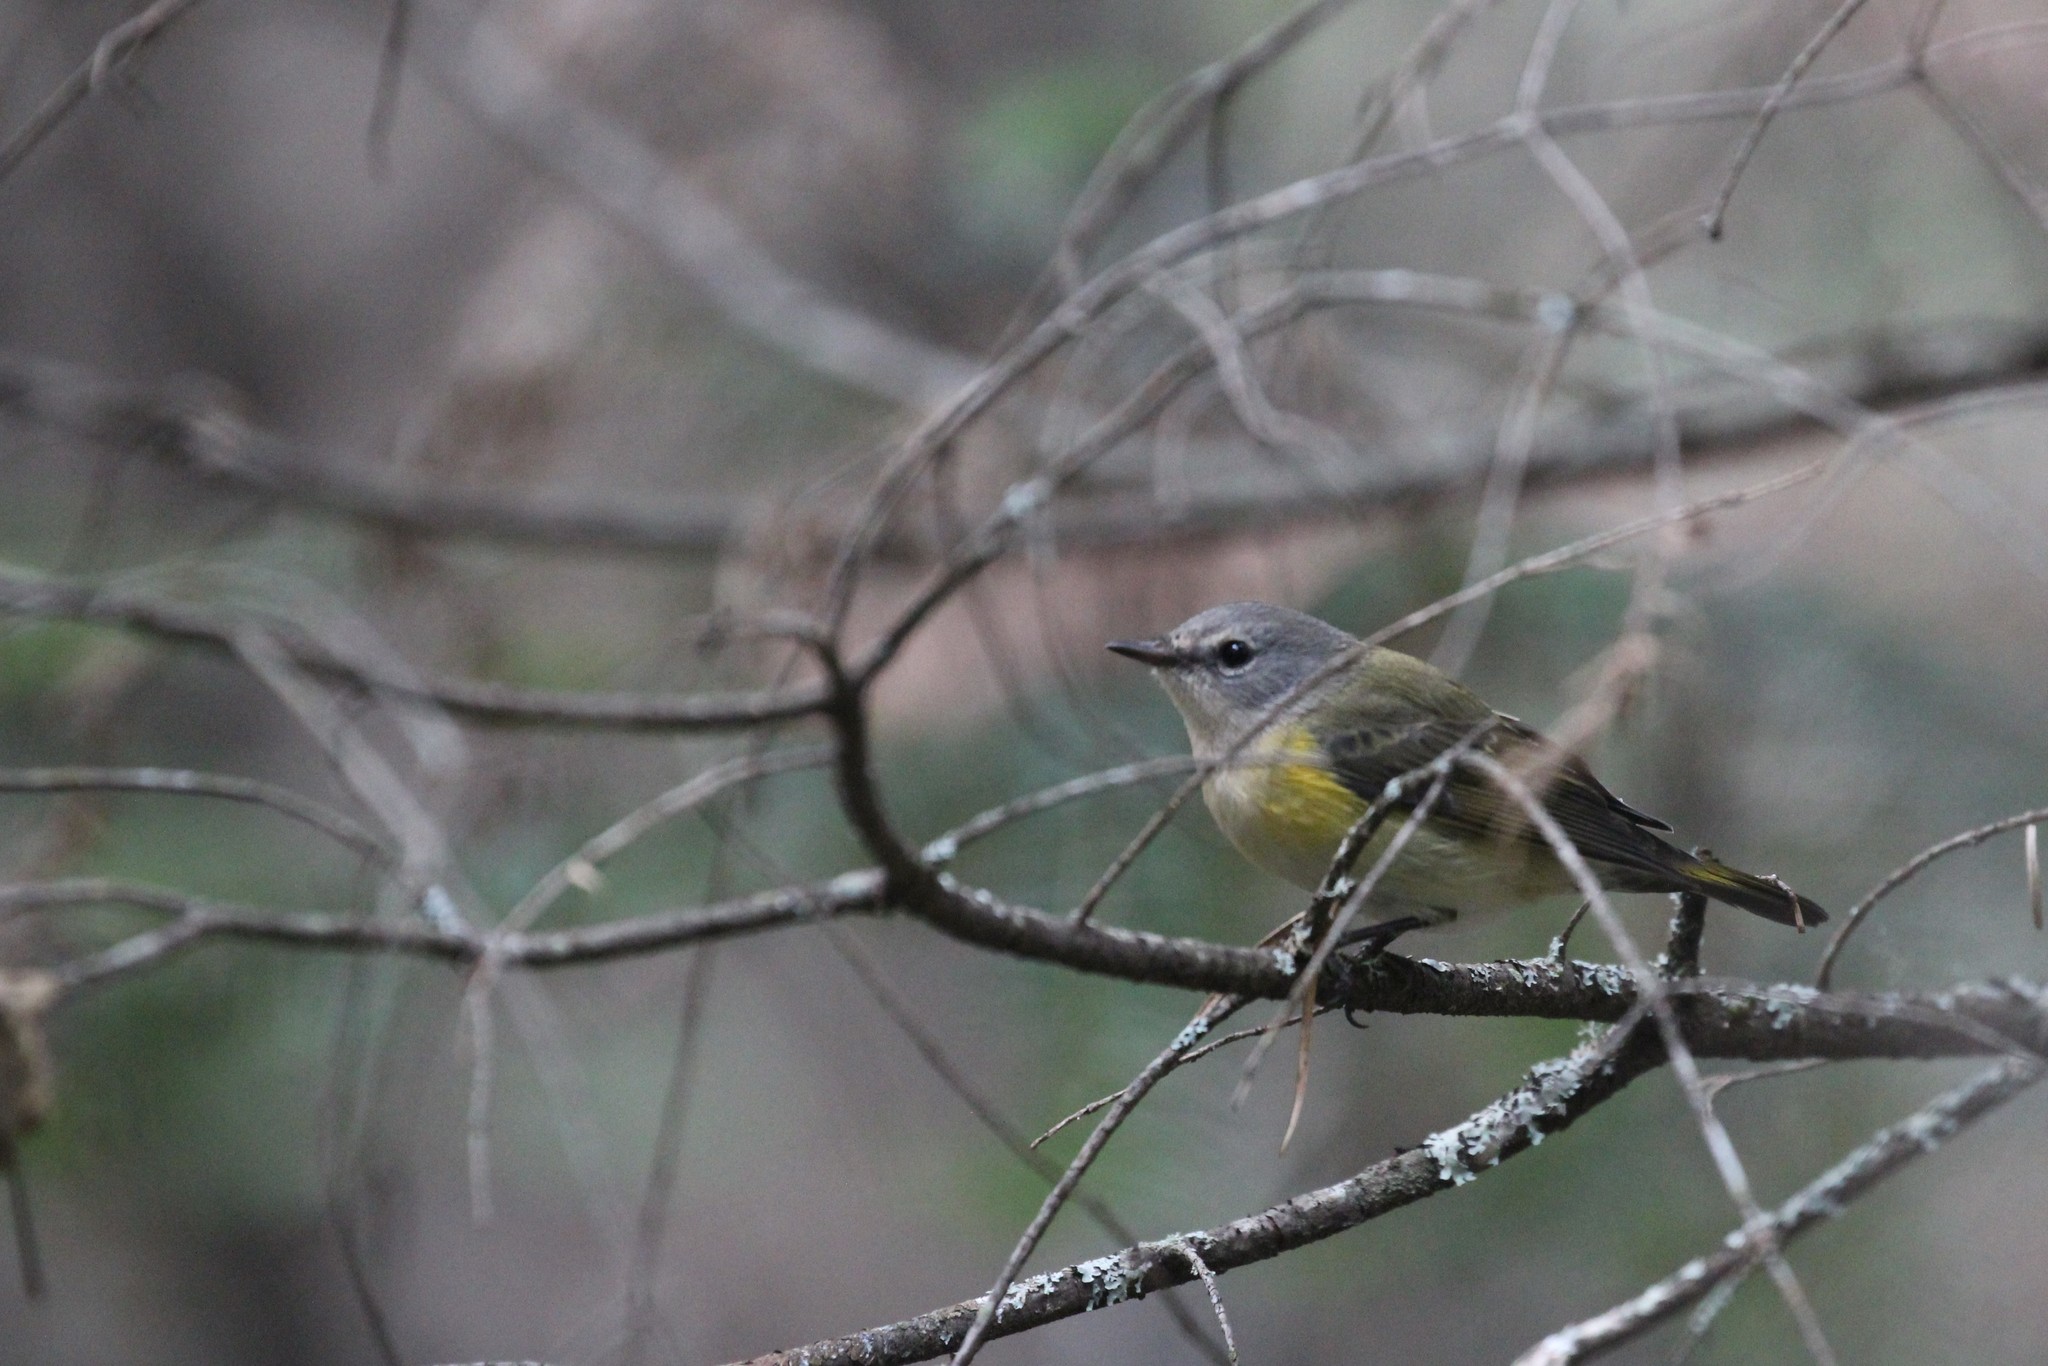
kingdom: Animalia
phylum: Chordata
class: Aves
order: Passeriformes
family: Parulidae
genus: Setophaga
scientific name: Setophaga ruticilla
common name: American redstart
